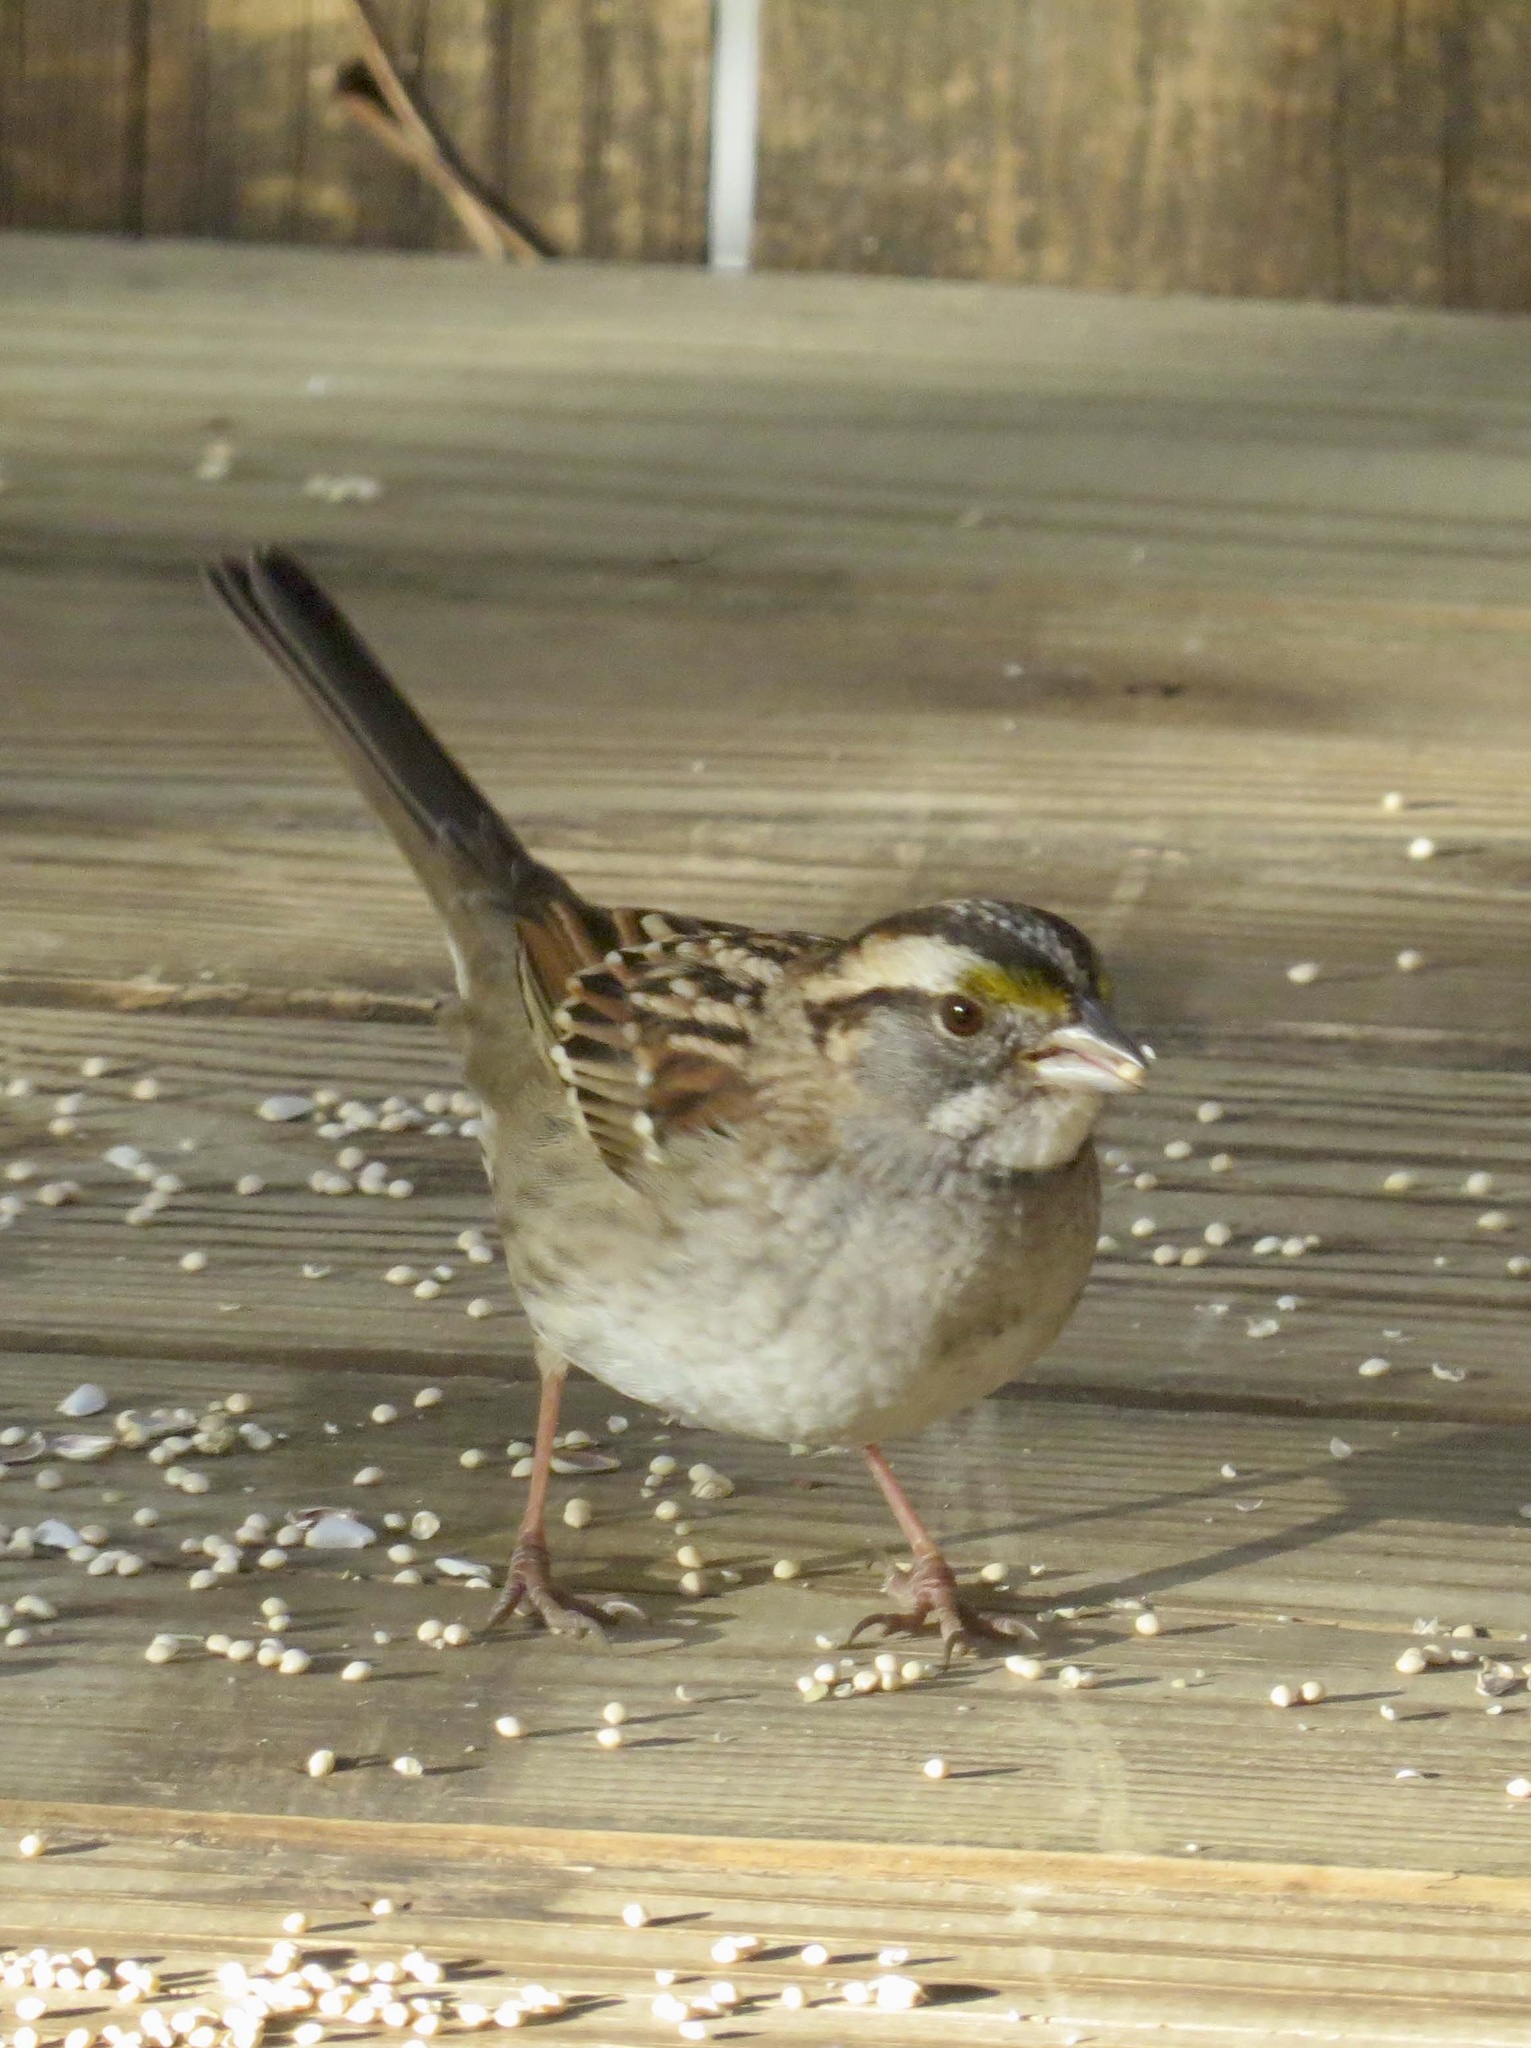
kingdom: Animalia
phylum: Chordata
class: Aves
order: Passeriformes
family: Passerellidae
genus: Zonotrichia
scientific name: Zonotrichia albicollis
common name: White-throated sparrow
